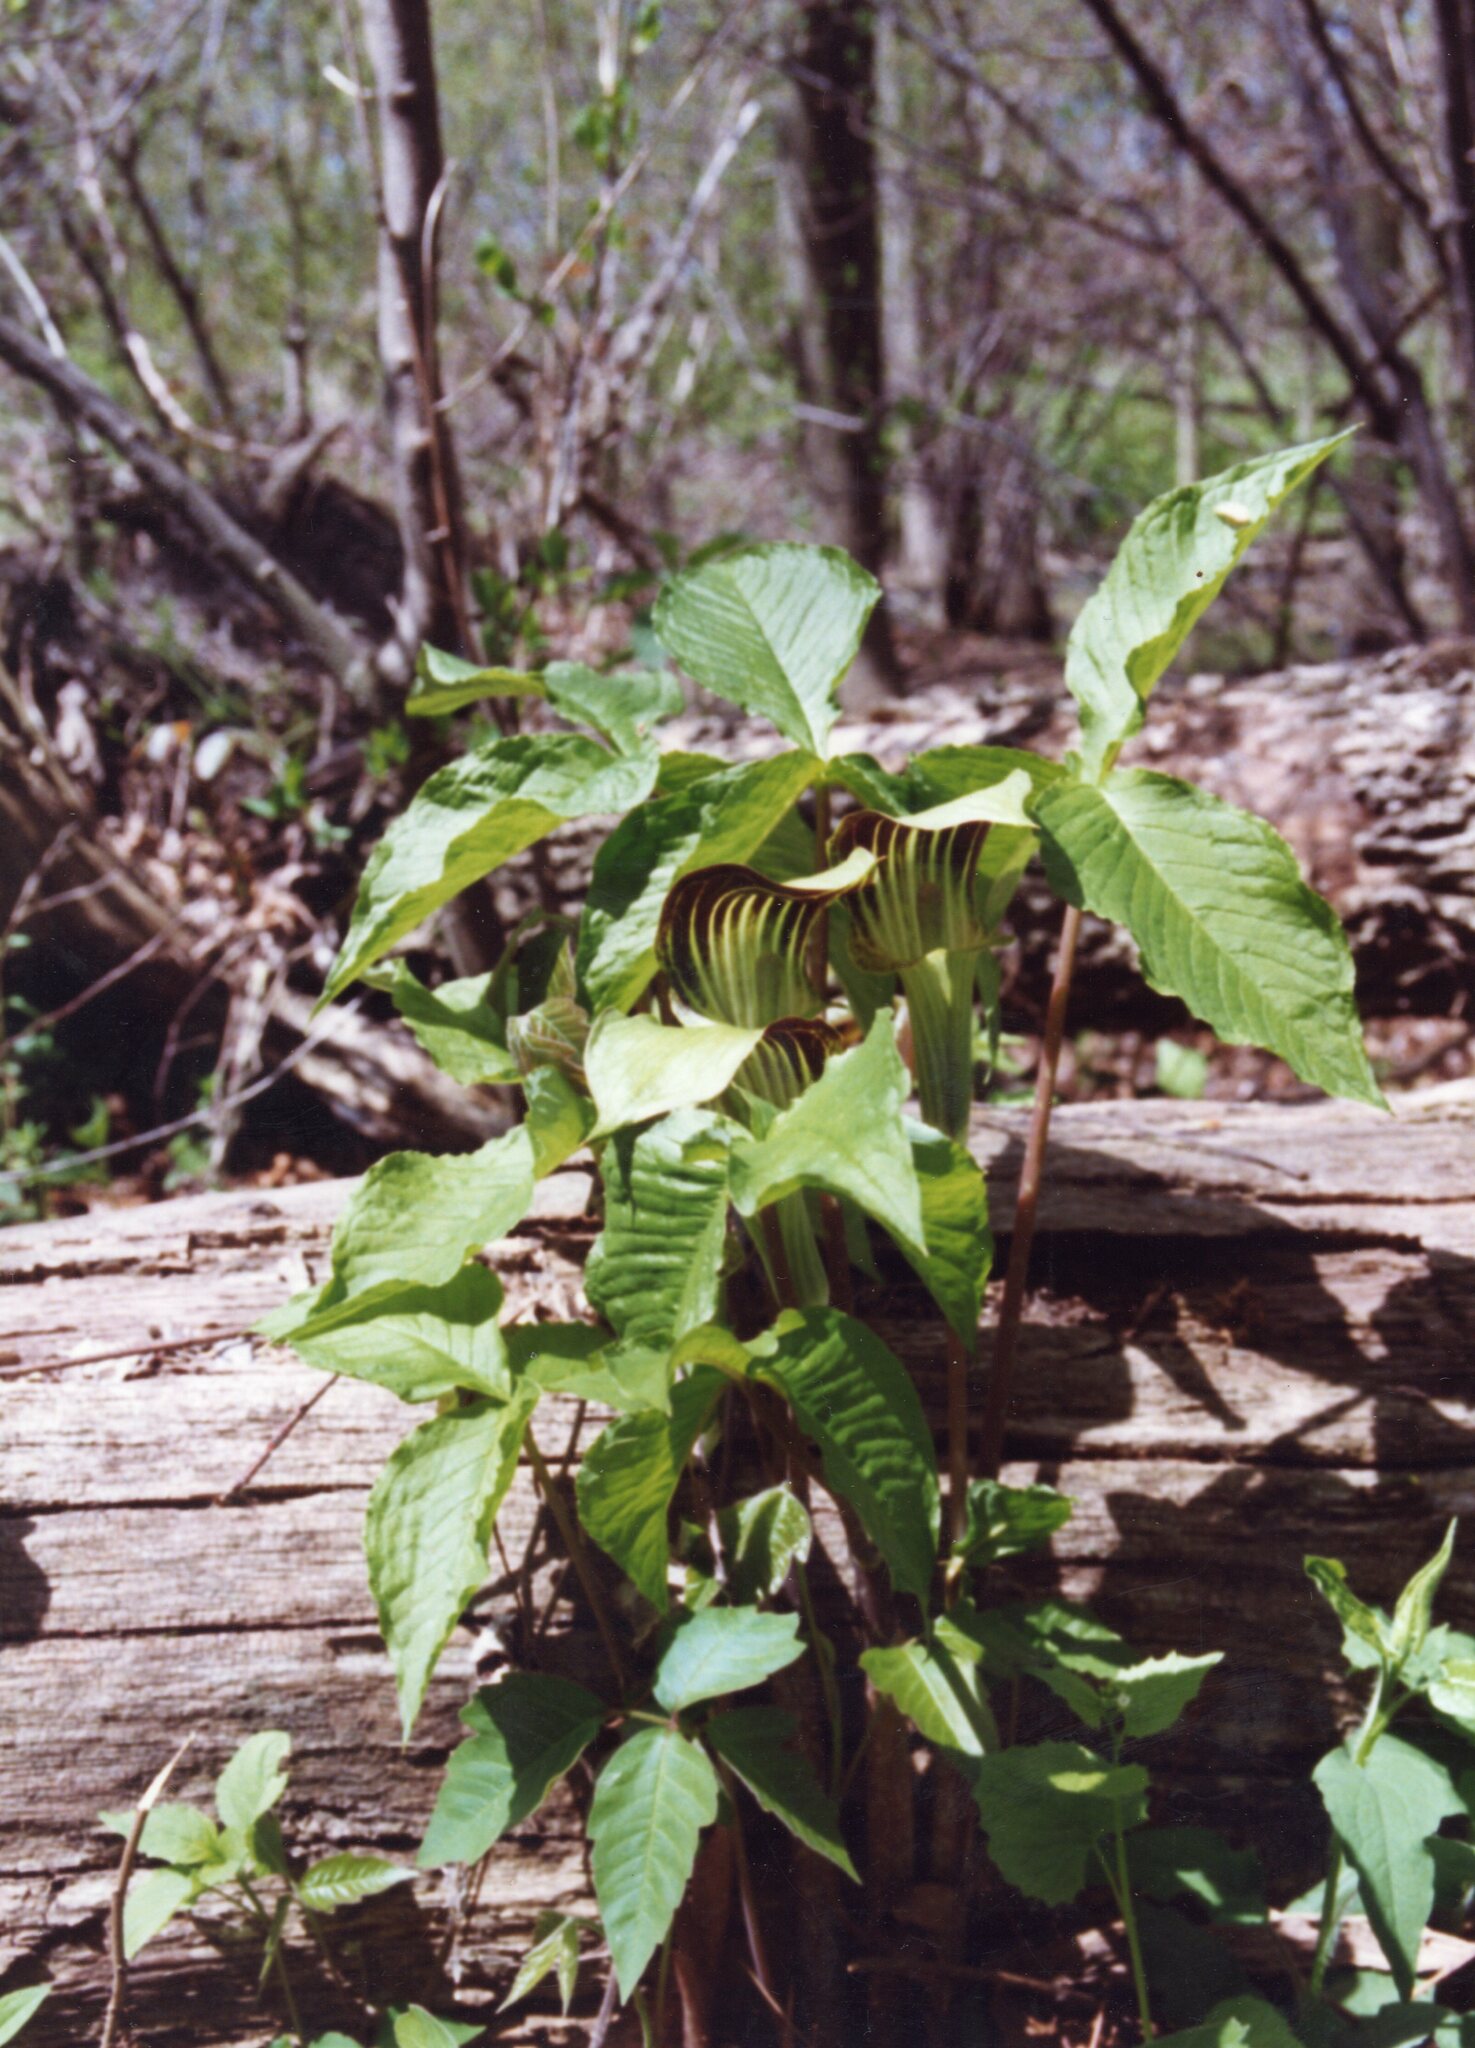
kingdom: Plantae
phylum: Tracheophyta
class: Liliopsida
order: Alismatales
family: Araceae
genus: Arisaema
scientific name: Arisaema triphyllum
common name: Jack-in-the-pulpit
